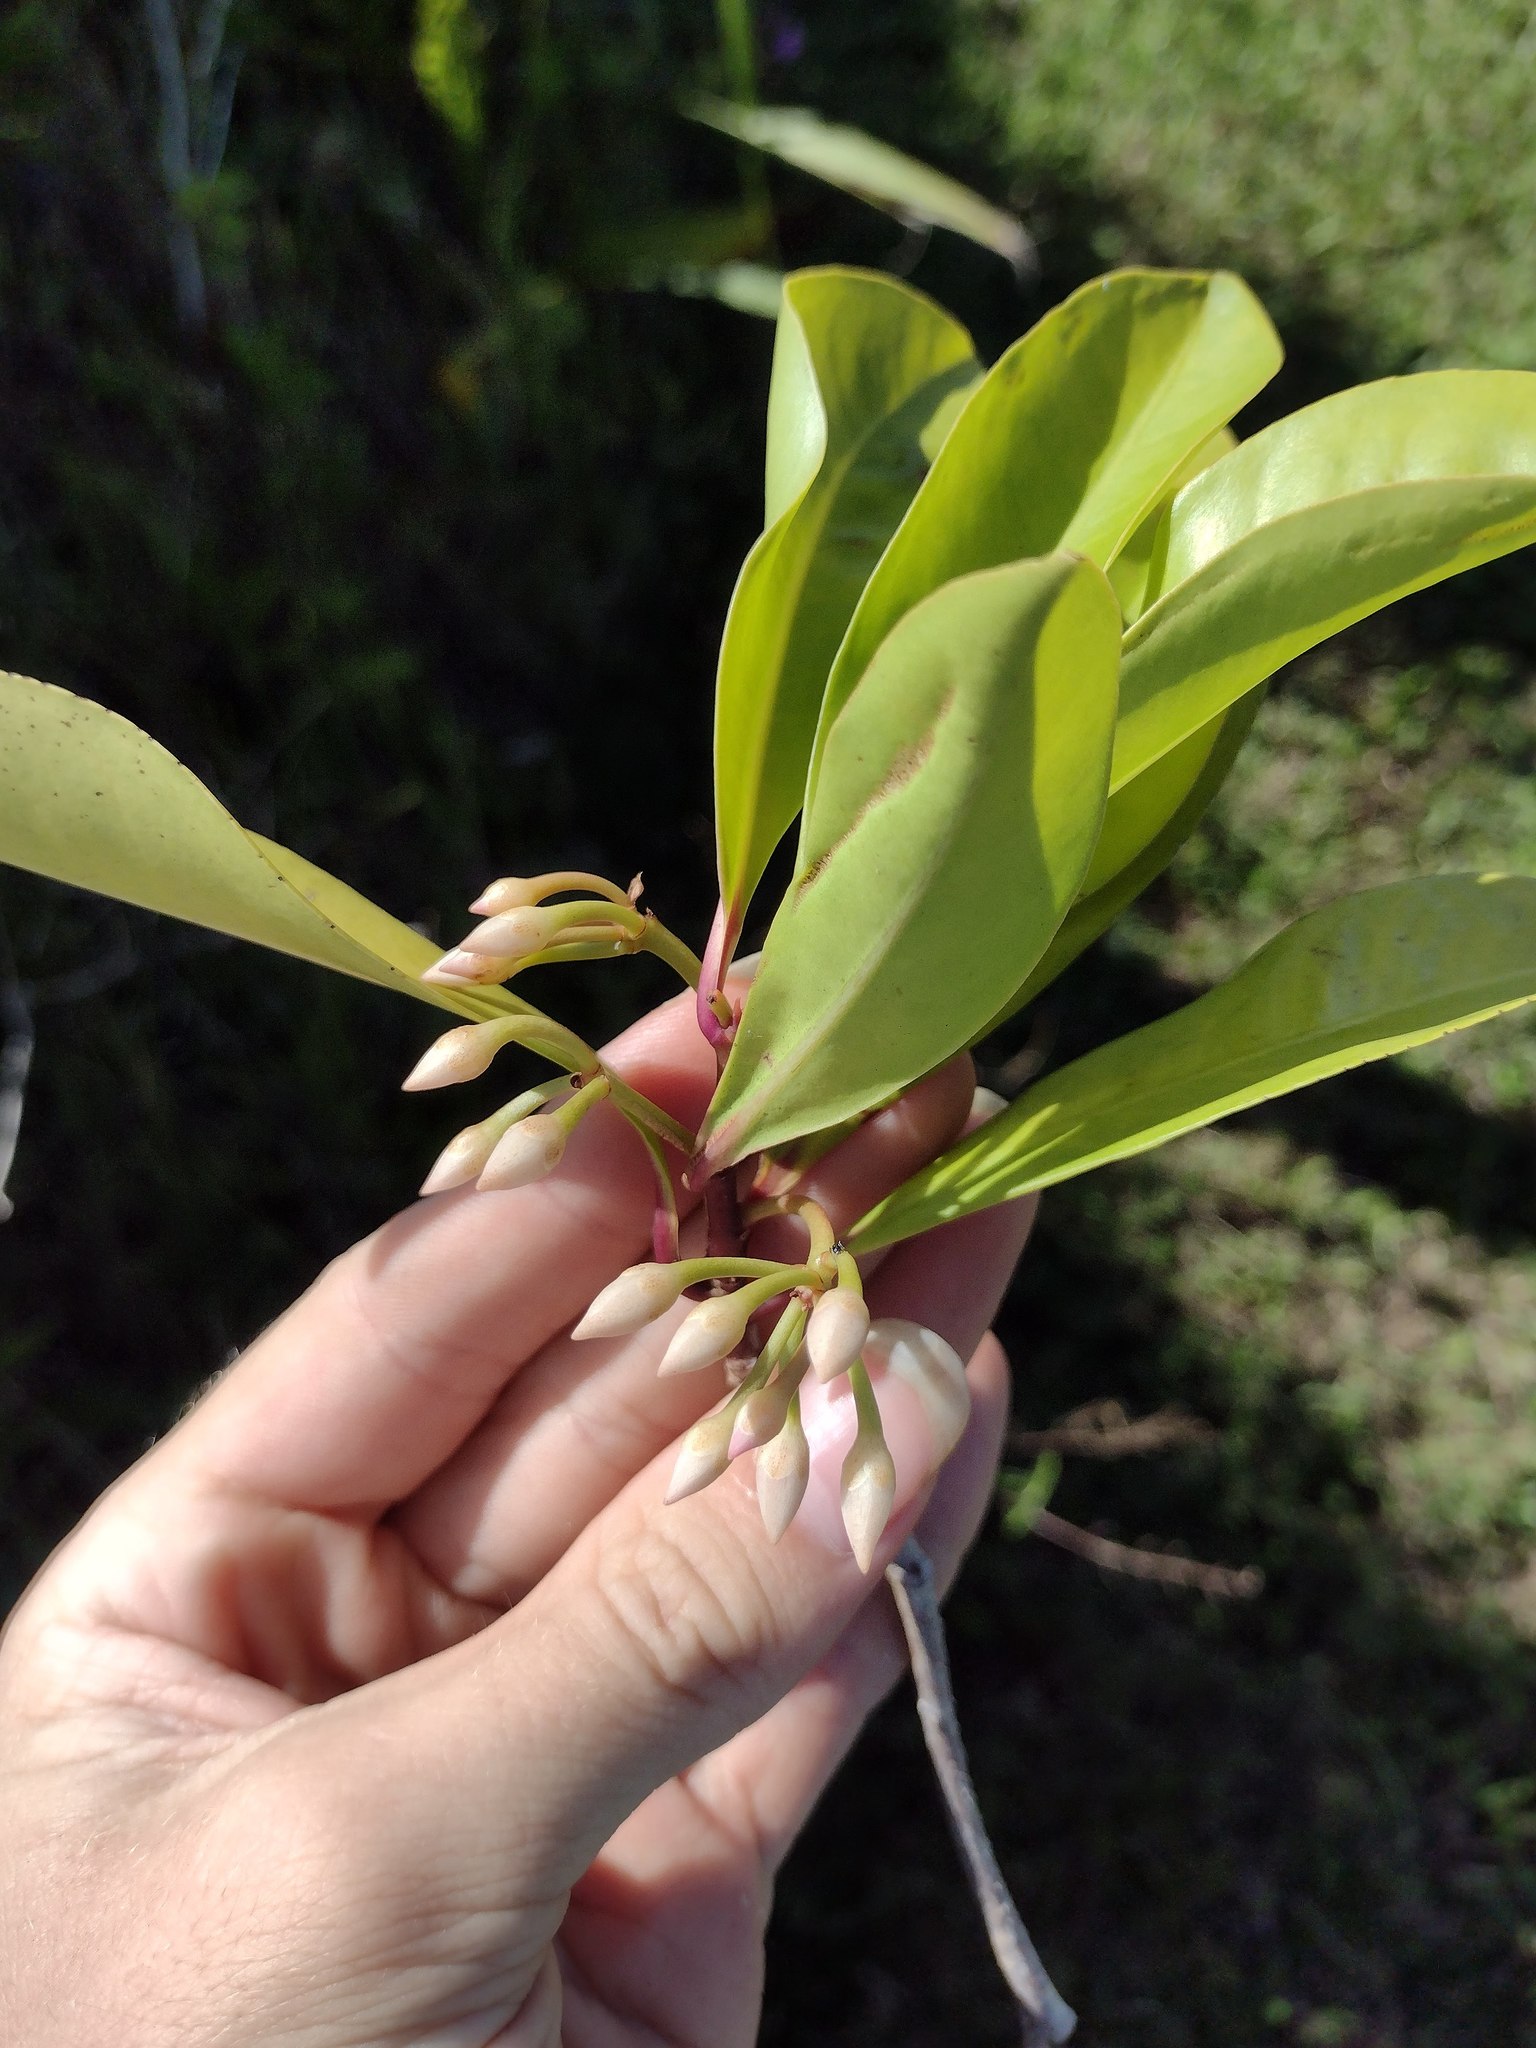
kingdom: Plantae
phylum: Tracheophyta
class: Magnoliopsida
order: Ericales
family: Primulaceae
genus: Ardisia
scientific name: Ardisia elliptica
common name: Shoebutton
